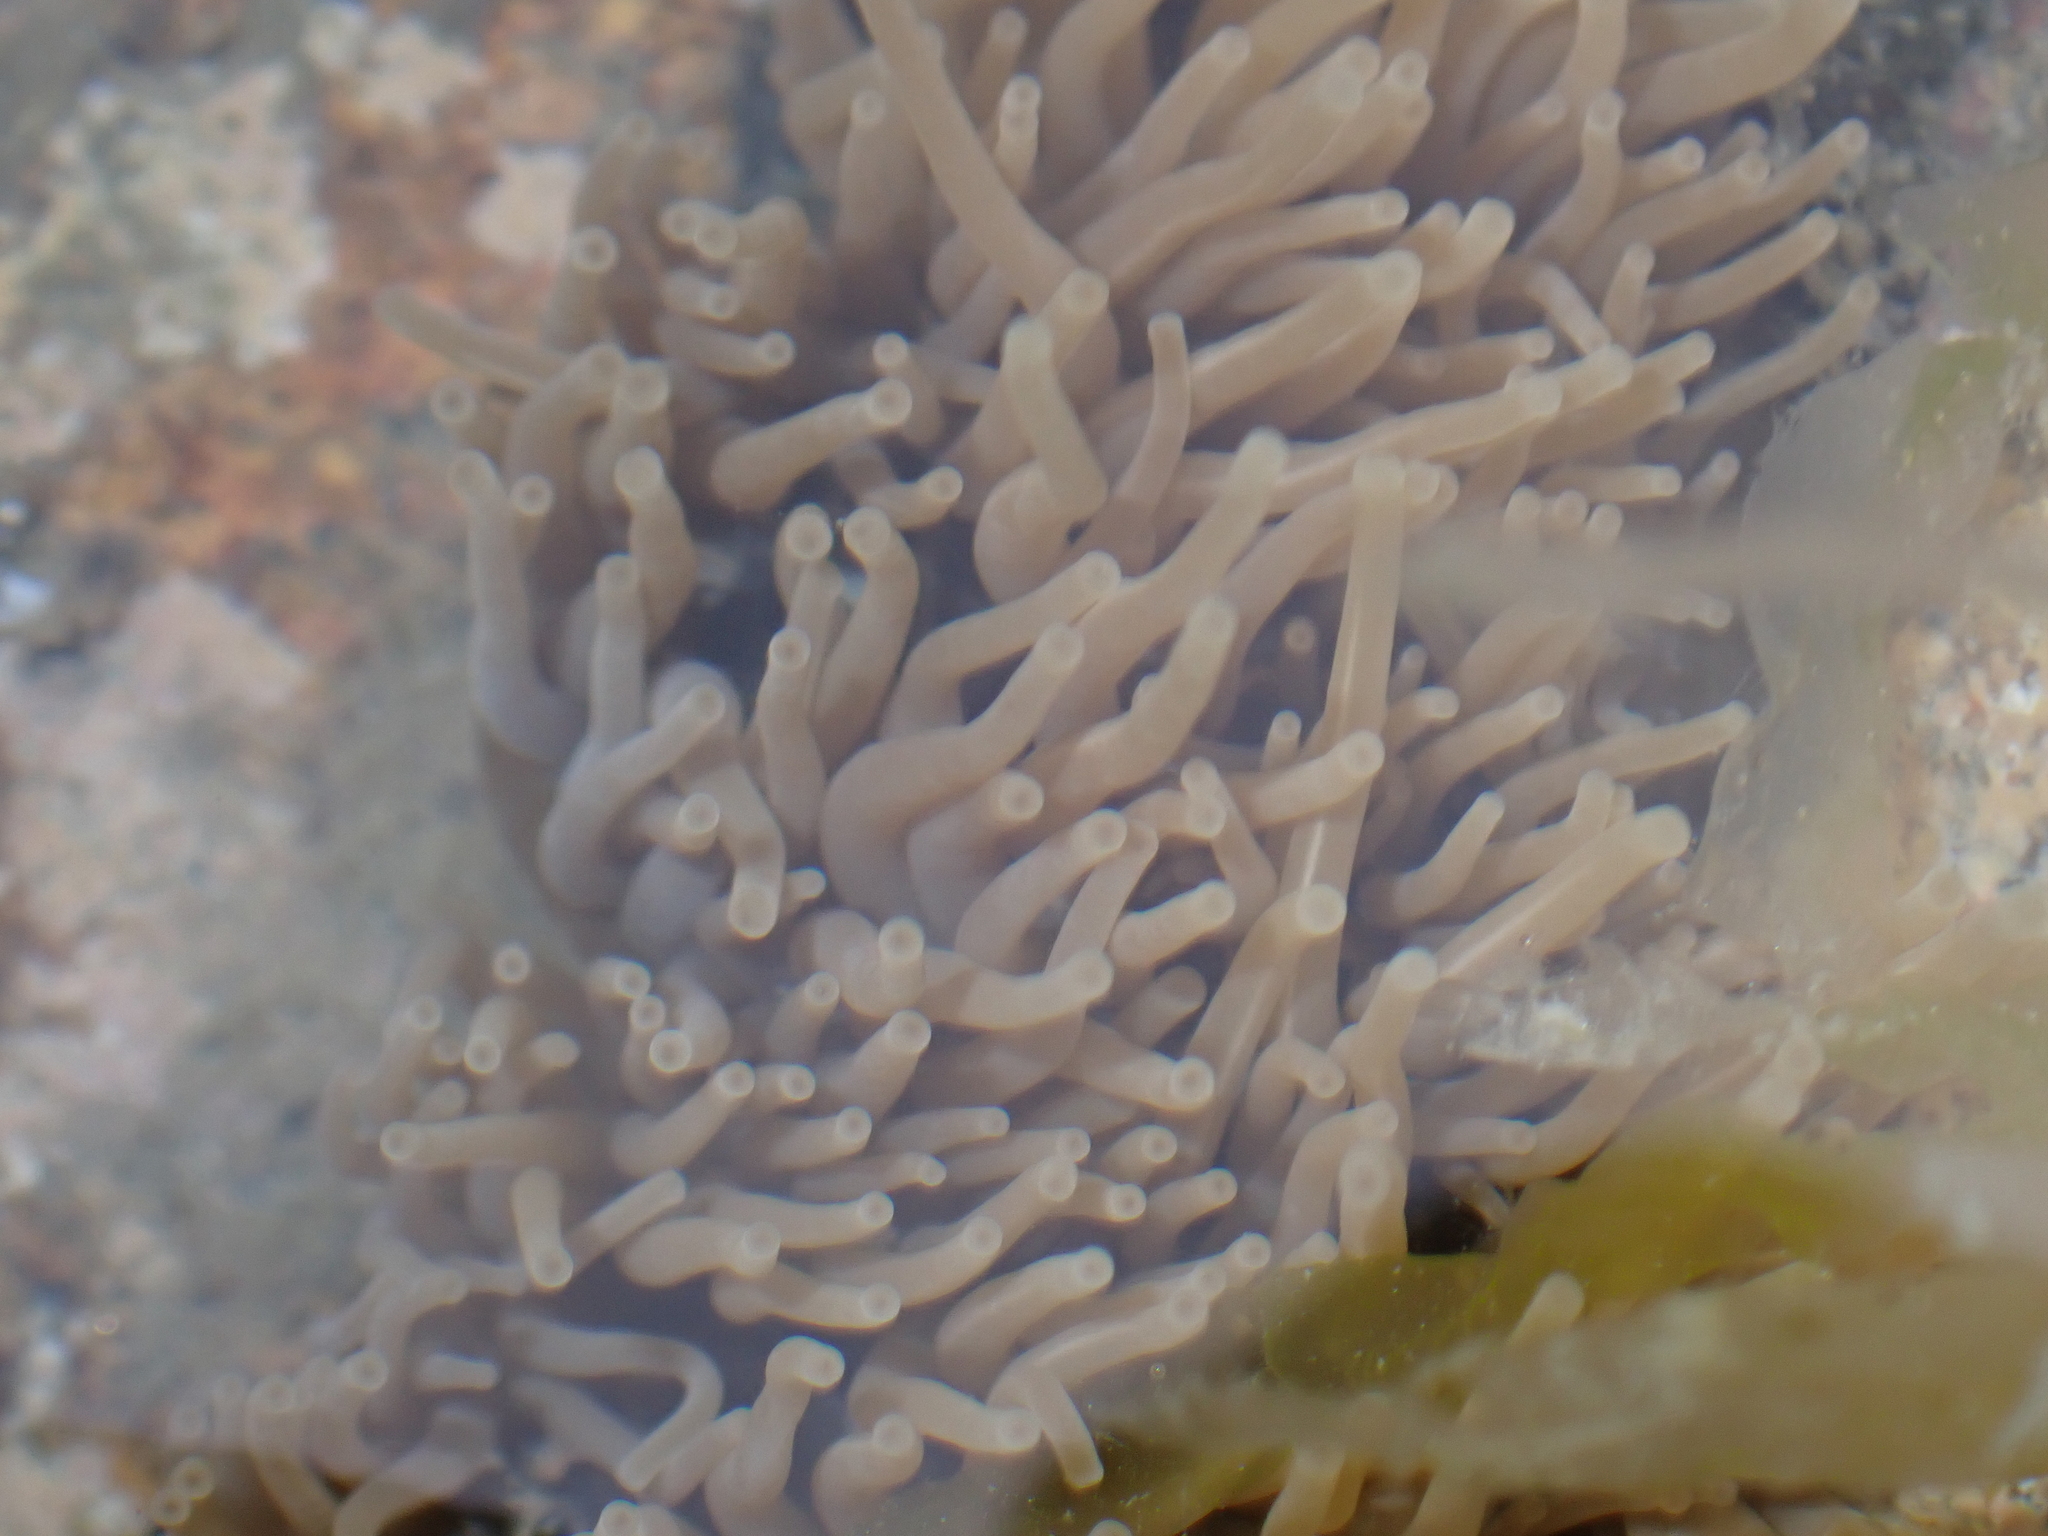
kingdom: Animalia
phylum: Cnidaria
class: Anthozoa
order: Actiniaria
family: Actiniidae
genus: Anemonia
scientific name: Anemonia viridis
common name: Snakelocks anemone
